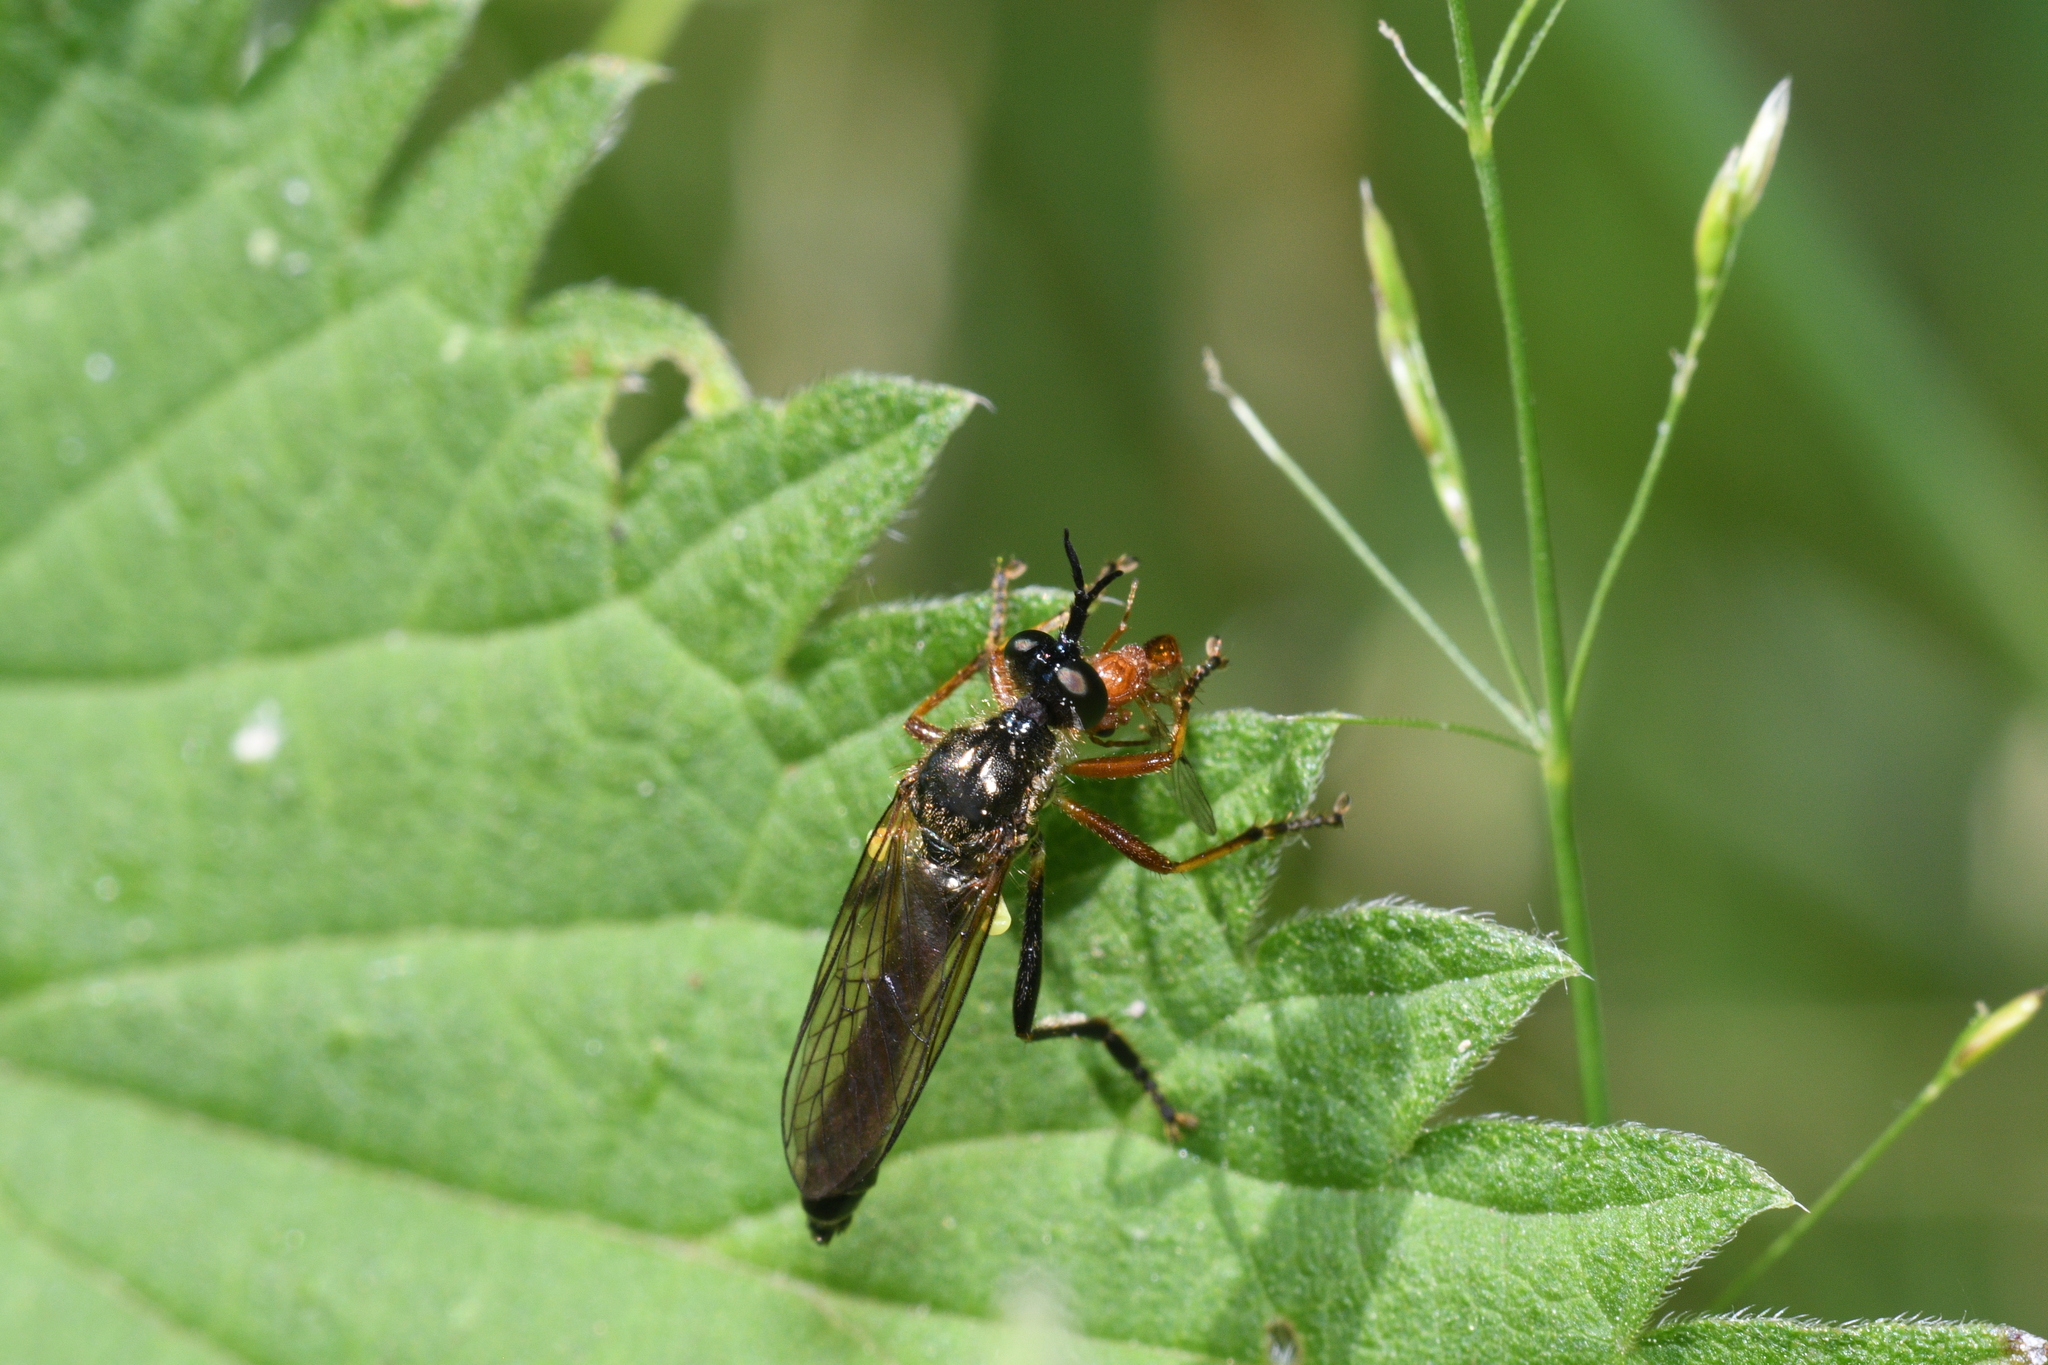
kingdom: Animalia
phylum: Arthropoda
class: Insecta
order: Diptera
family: Asilidae
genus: Dioctria
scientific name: Dioctria rufipes
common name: Common red-legged robberfly
